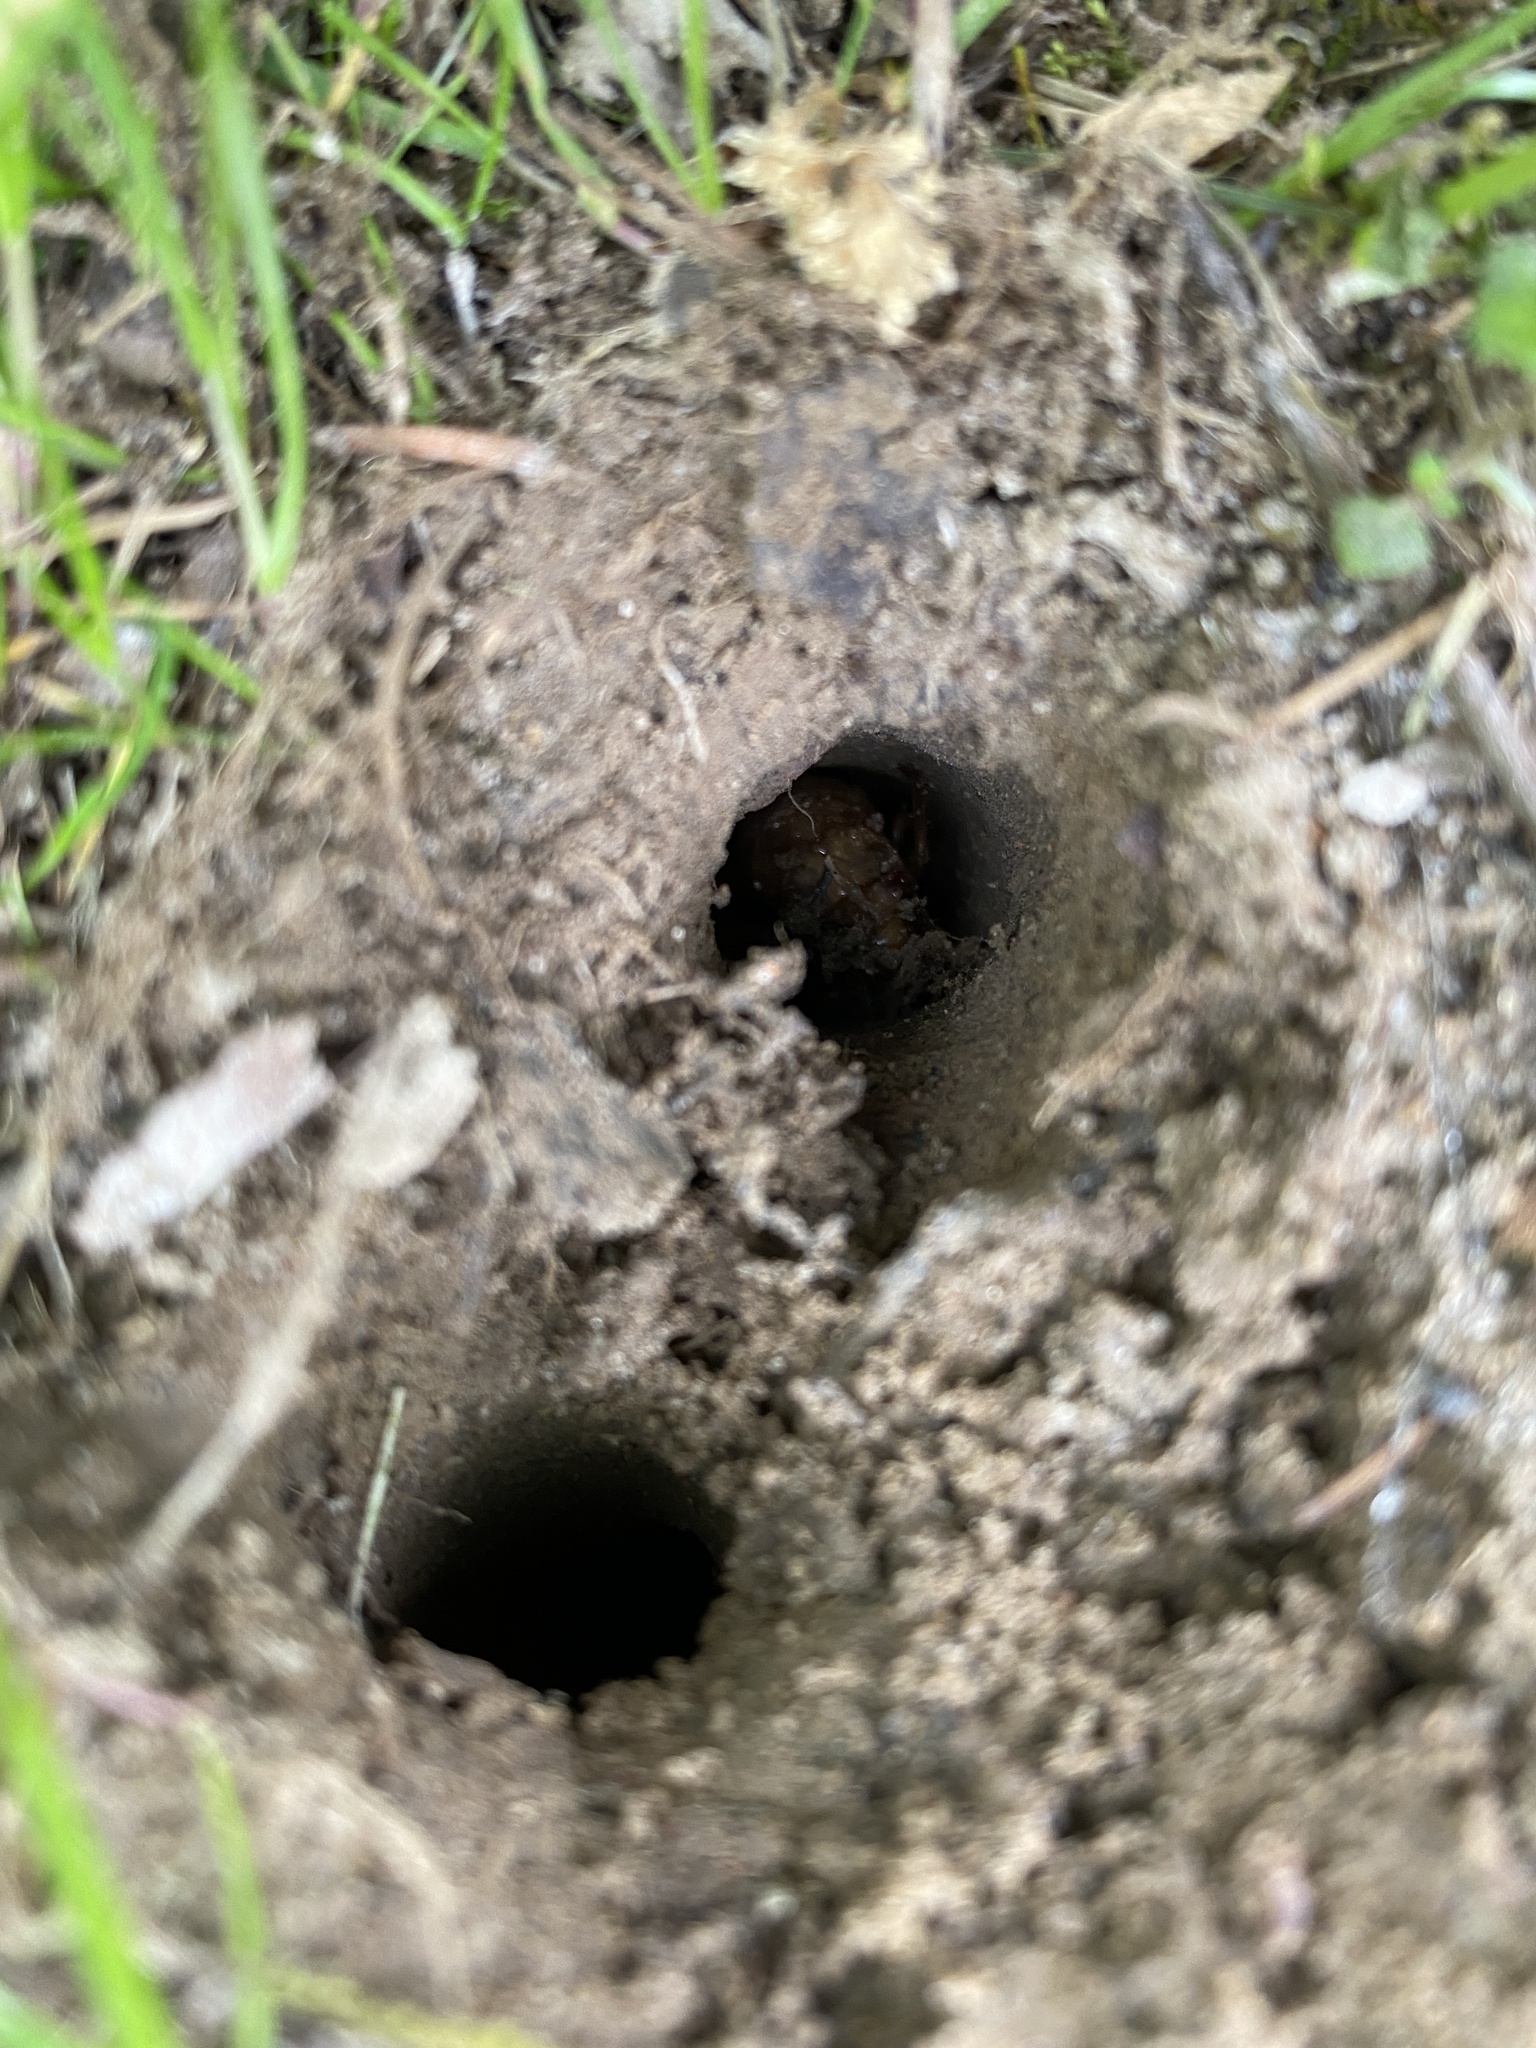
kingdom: Animalia
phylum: Arthropoda
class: Insecta
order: Hemiptera
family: Cicadidae
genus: Magicicada
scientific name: Magicicada
